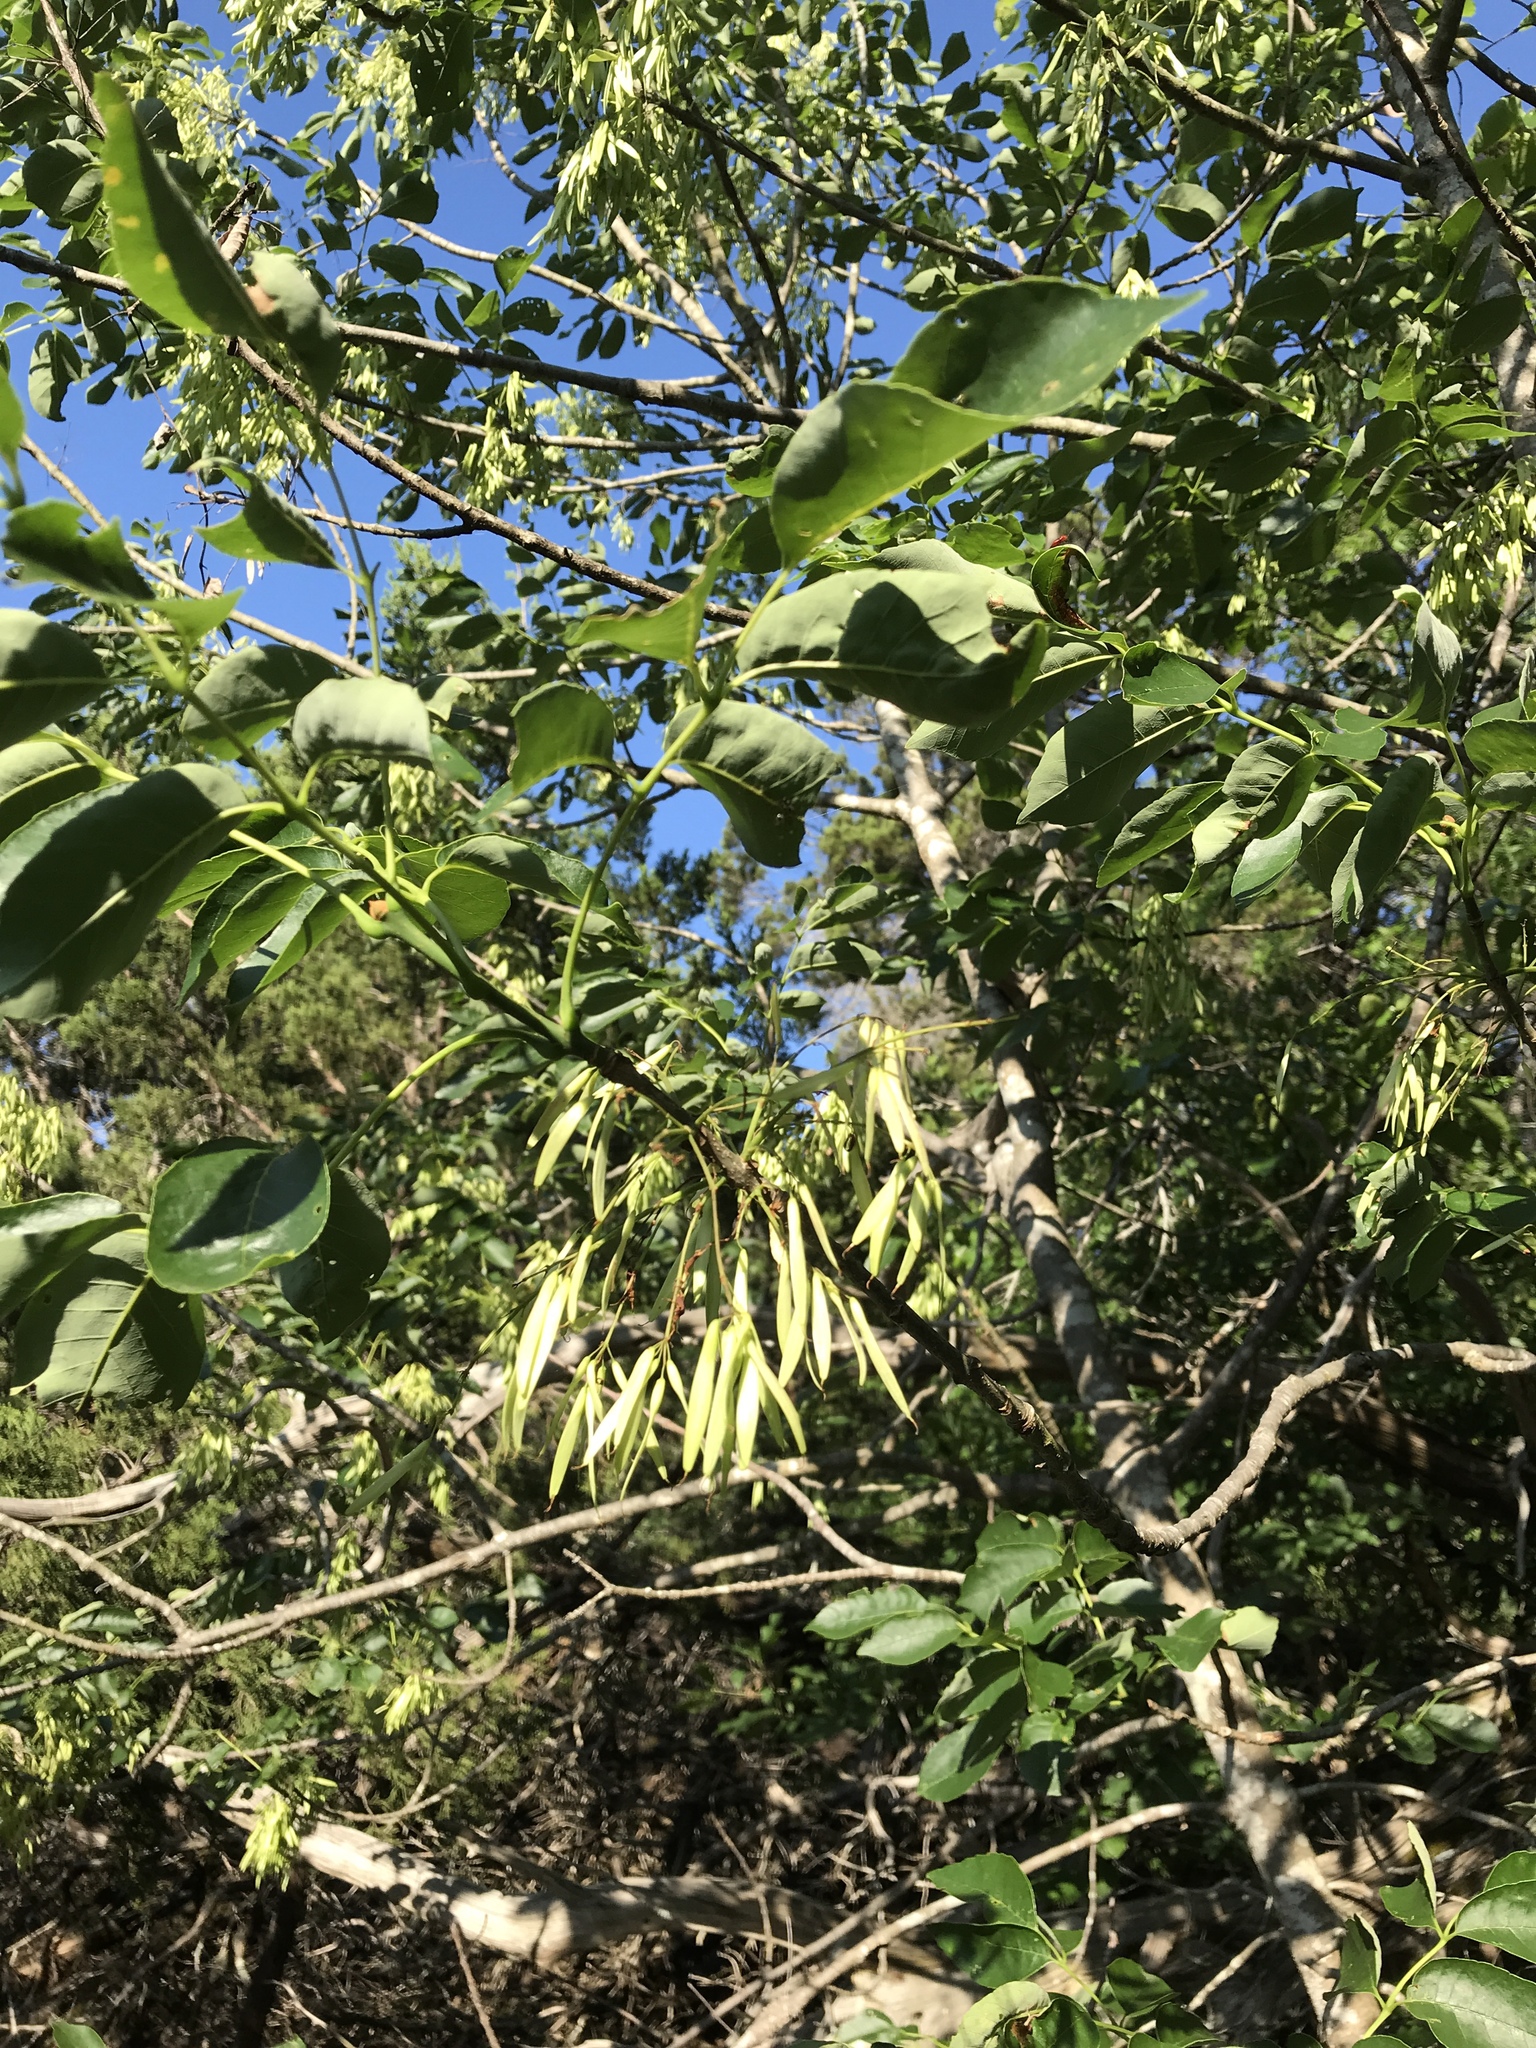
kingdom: Plantae
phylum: Tracheophyta
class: Magnoliopsida
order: Lamiales
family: Oleaceae
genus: Fraxinus
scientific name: Fraxinus albicans
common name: Texas ash
